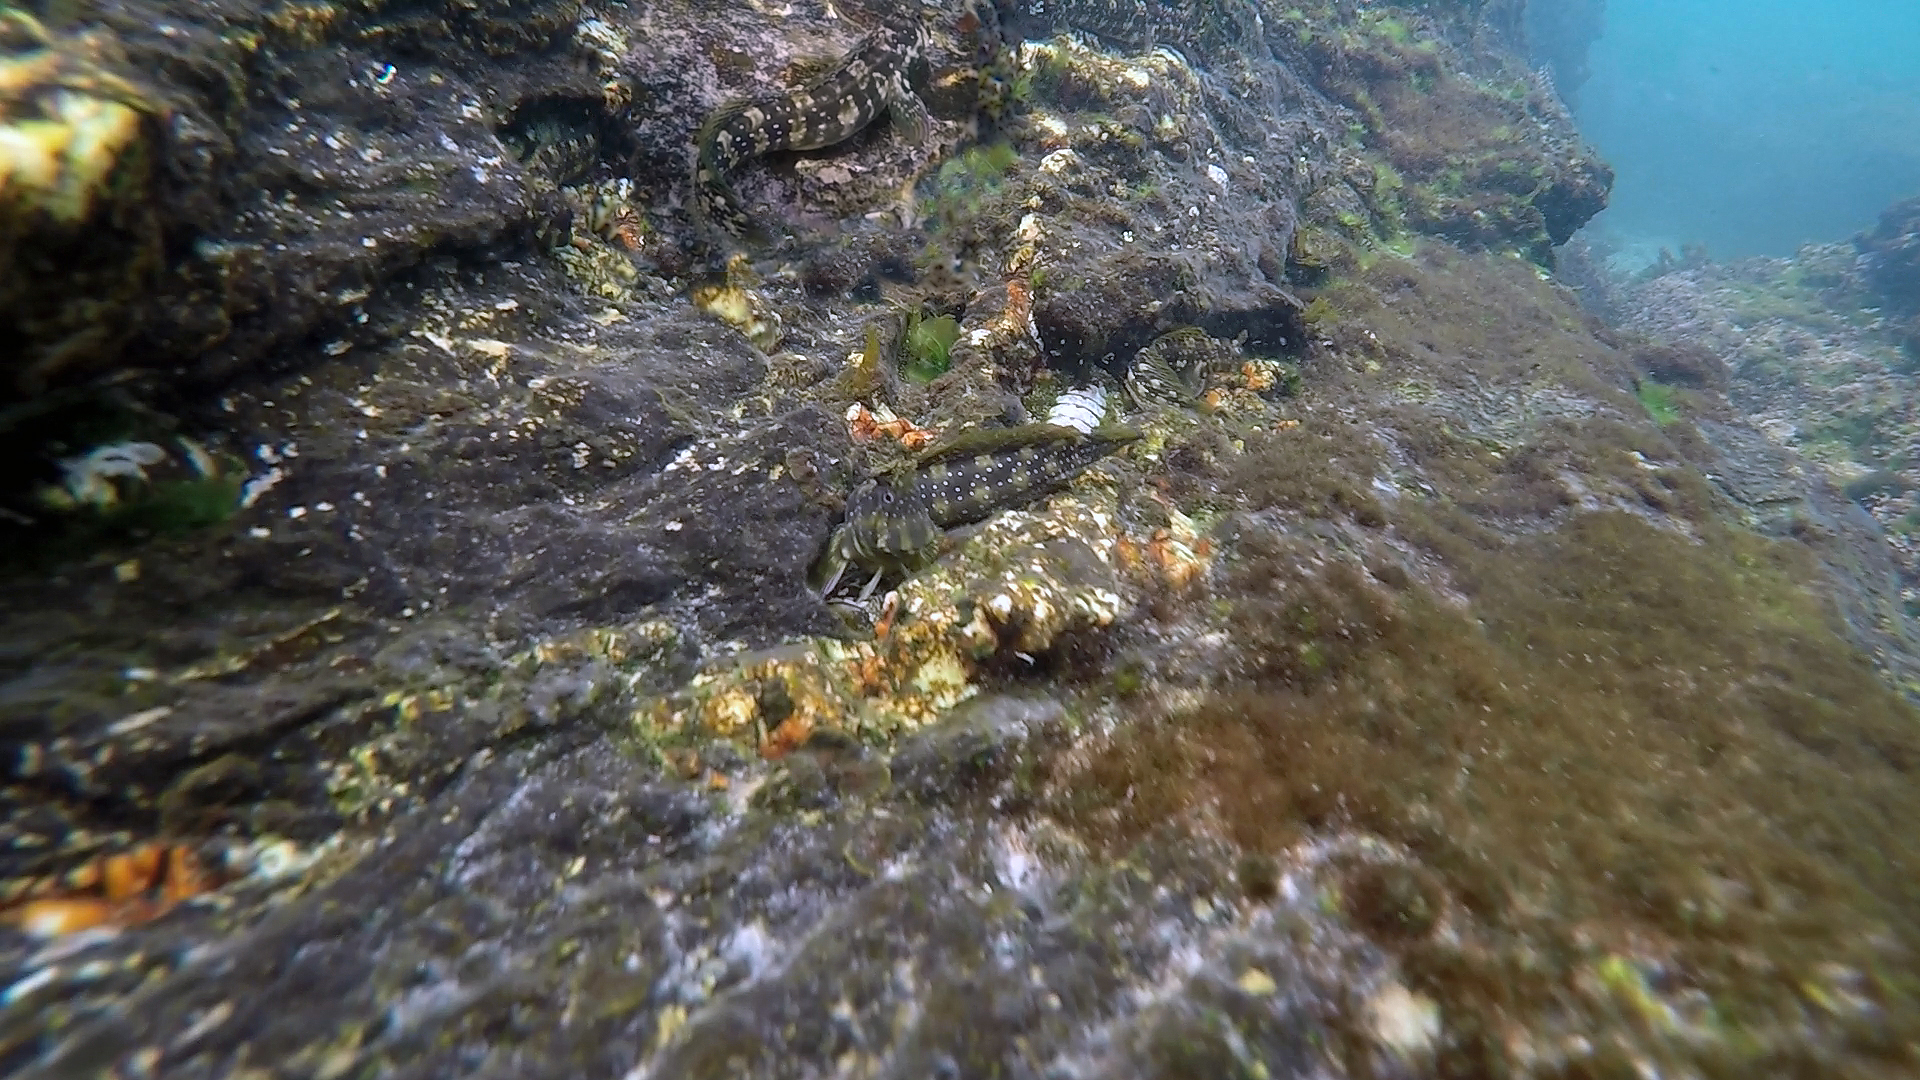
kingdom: Animalia
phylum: Chordata
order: Perciformes
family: Blenniidae
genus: Salarias
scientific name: Salarias fasciatus
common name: Jewelled blenny
